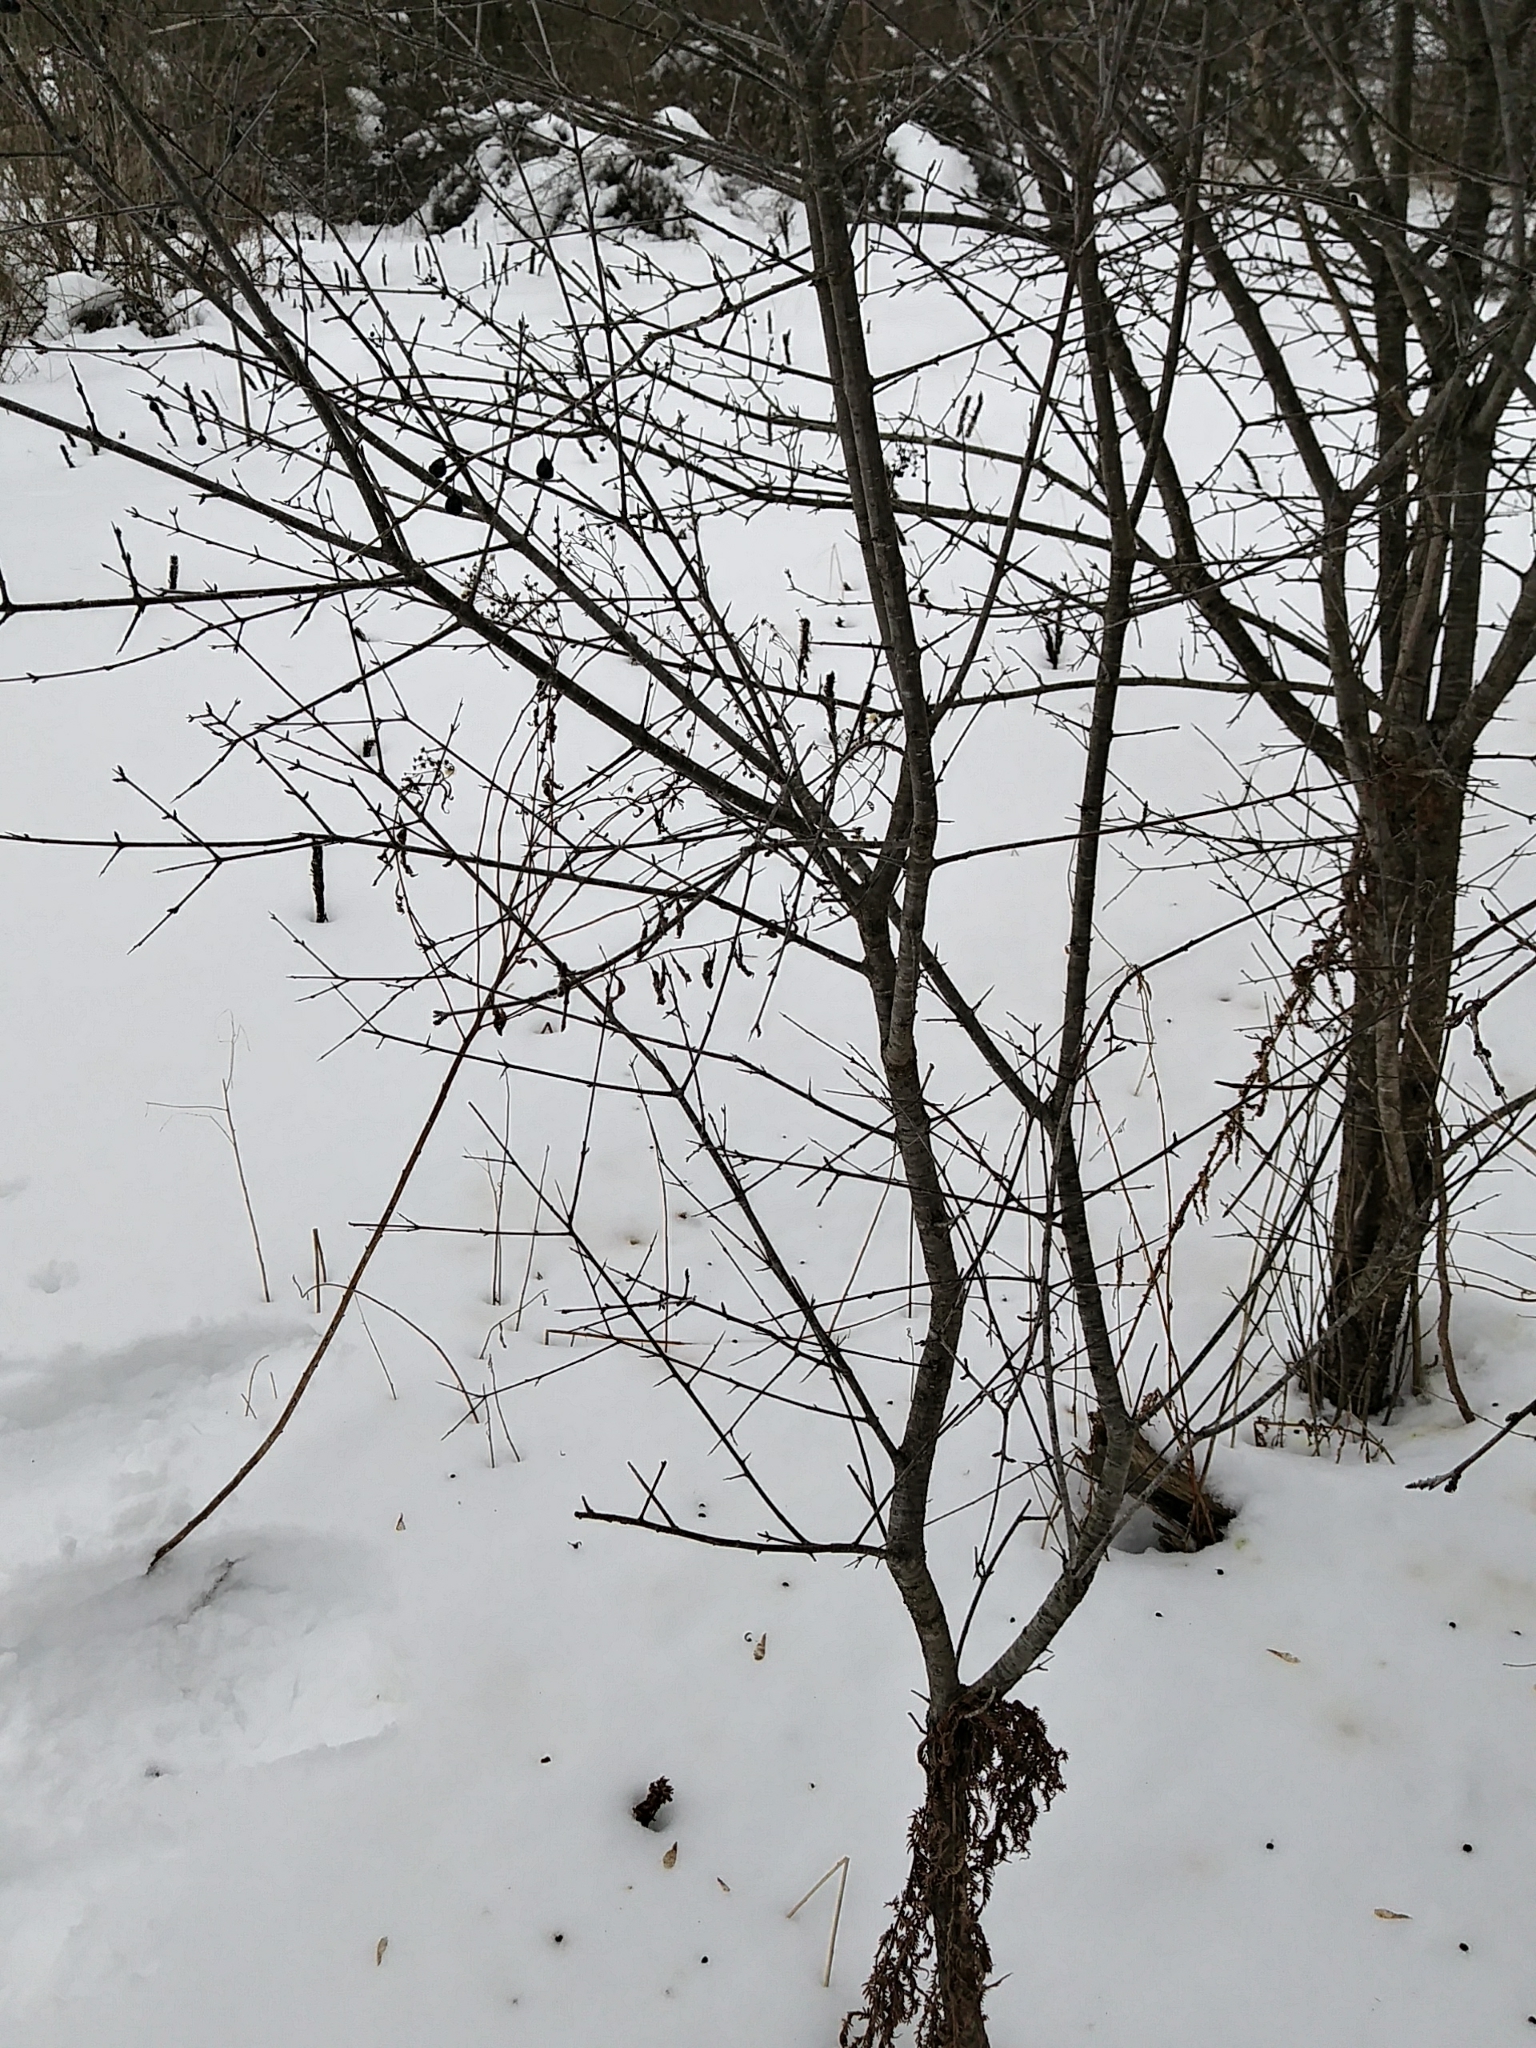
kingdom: Plantae
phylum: Tracheophyta
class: Magnoliopsida
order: Rosales
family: Rhamnaceae
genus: Rhamnus
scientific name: Rhamnus cathartica
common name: Common buckthorn
